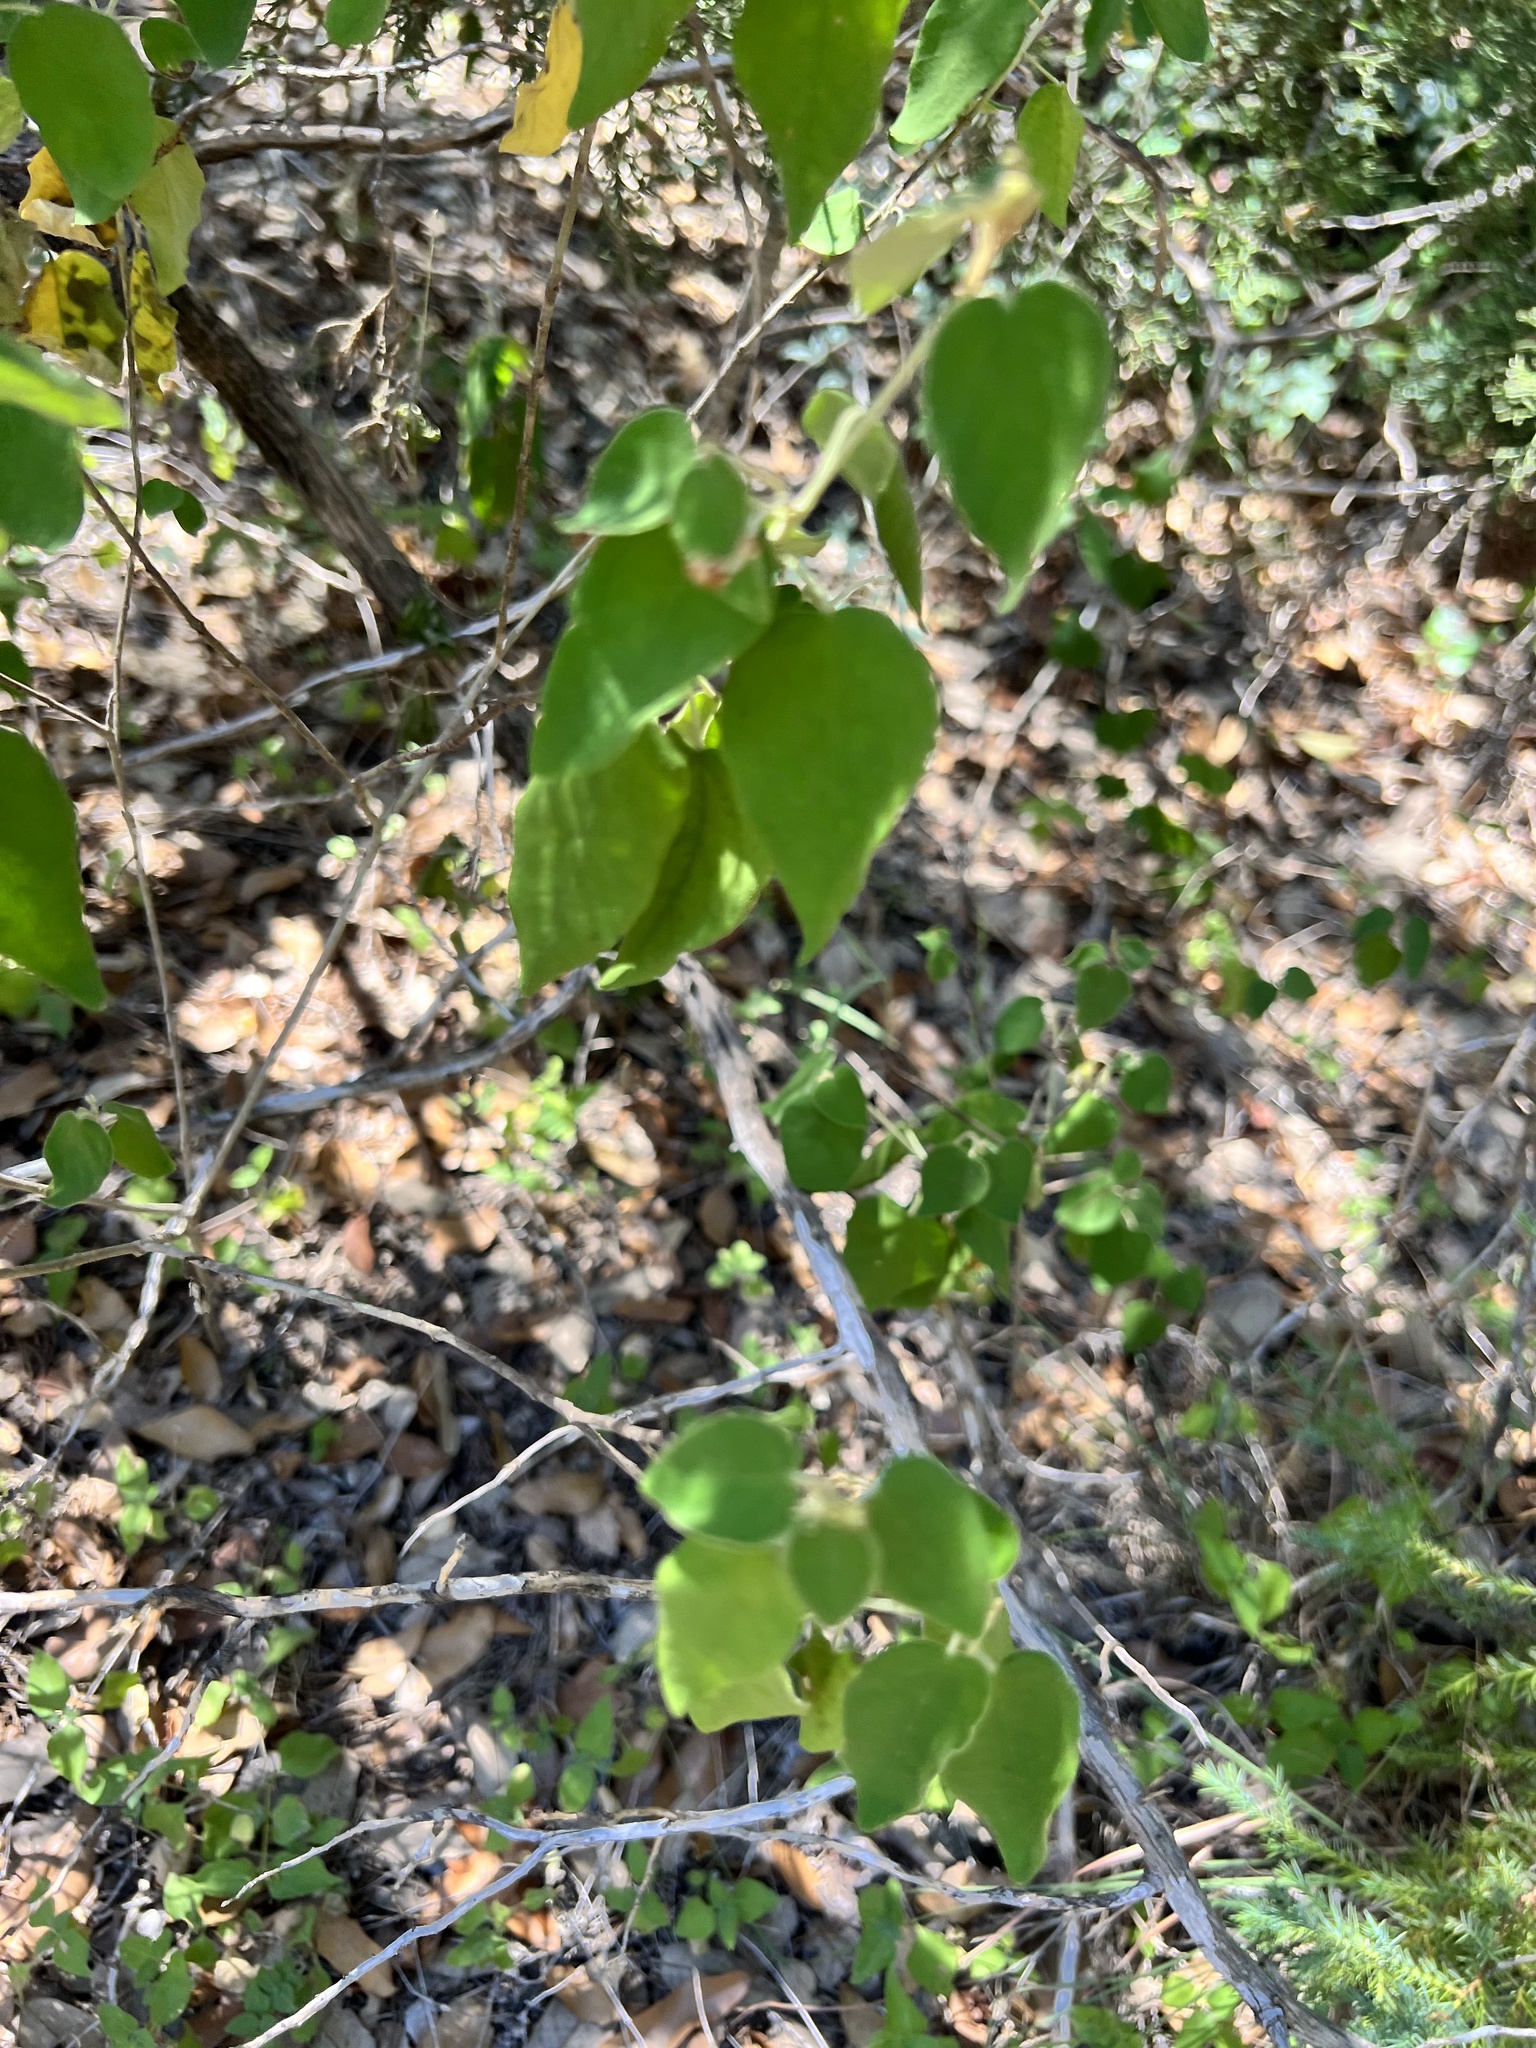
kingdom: Plantae
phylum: Tracheophyta
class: Magnoliopsida
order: Malpighiales
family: Euphorbiaceae
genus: Croton
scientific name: Croton fruticulosus
